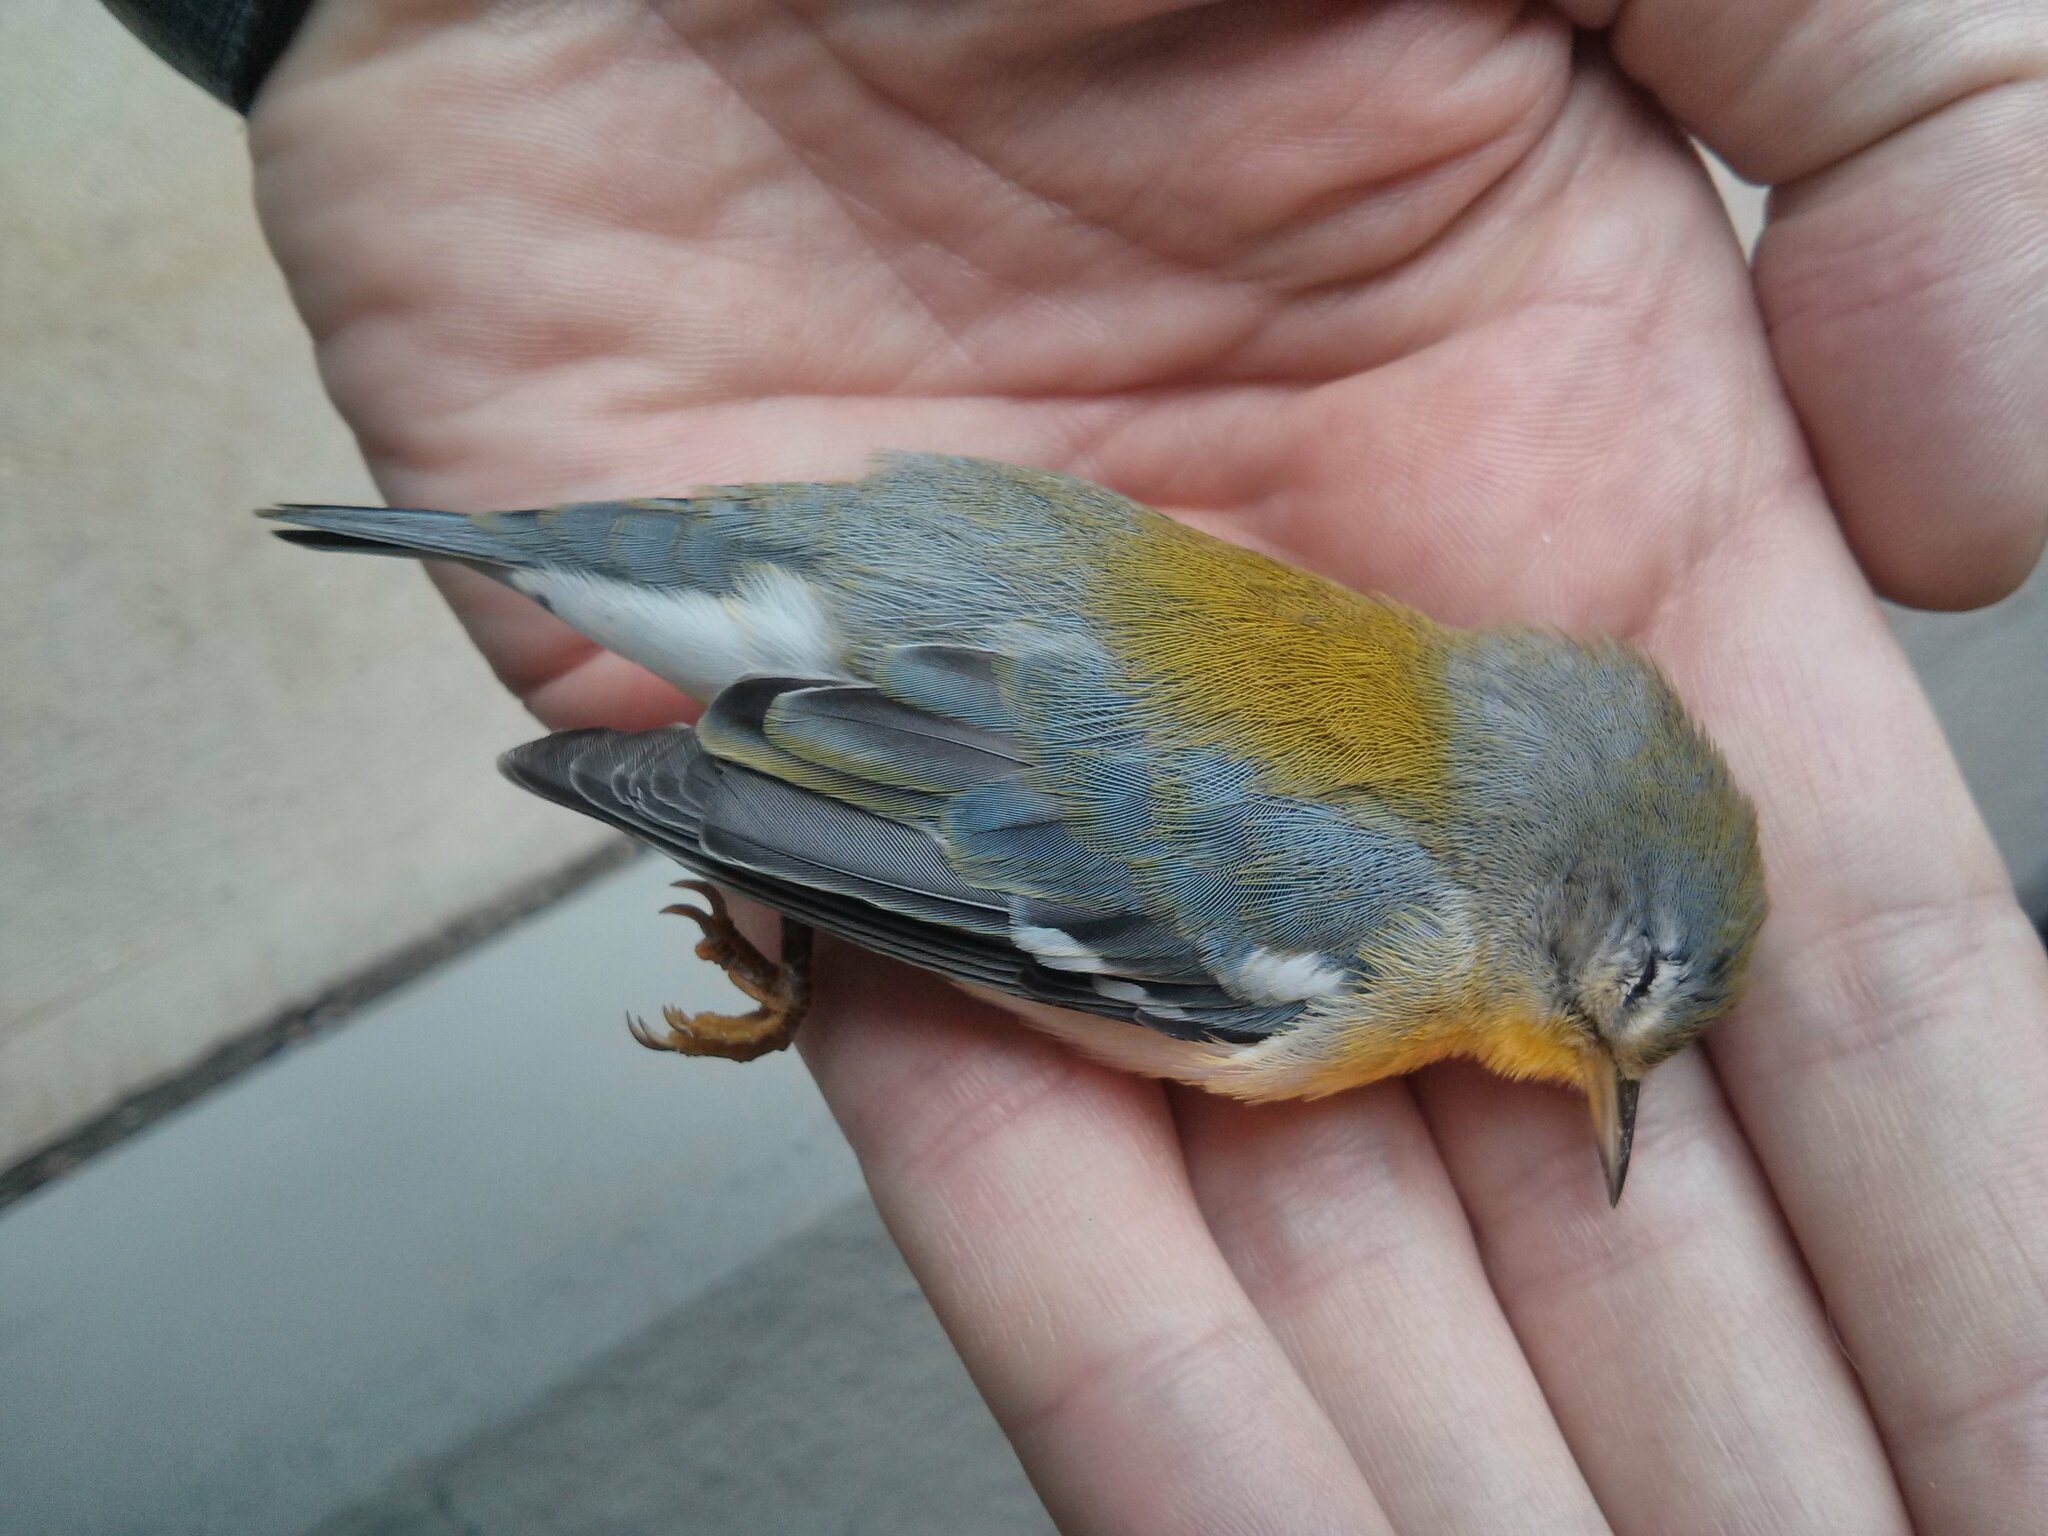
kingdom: Animalia
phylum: Chordata
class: Aves
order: Passeriformes
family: Parulidae
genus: Setophaga
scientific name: Setophaga americana
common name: Northern parula
